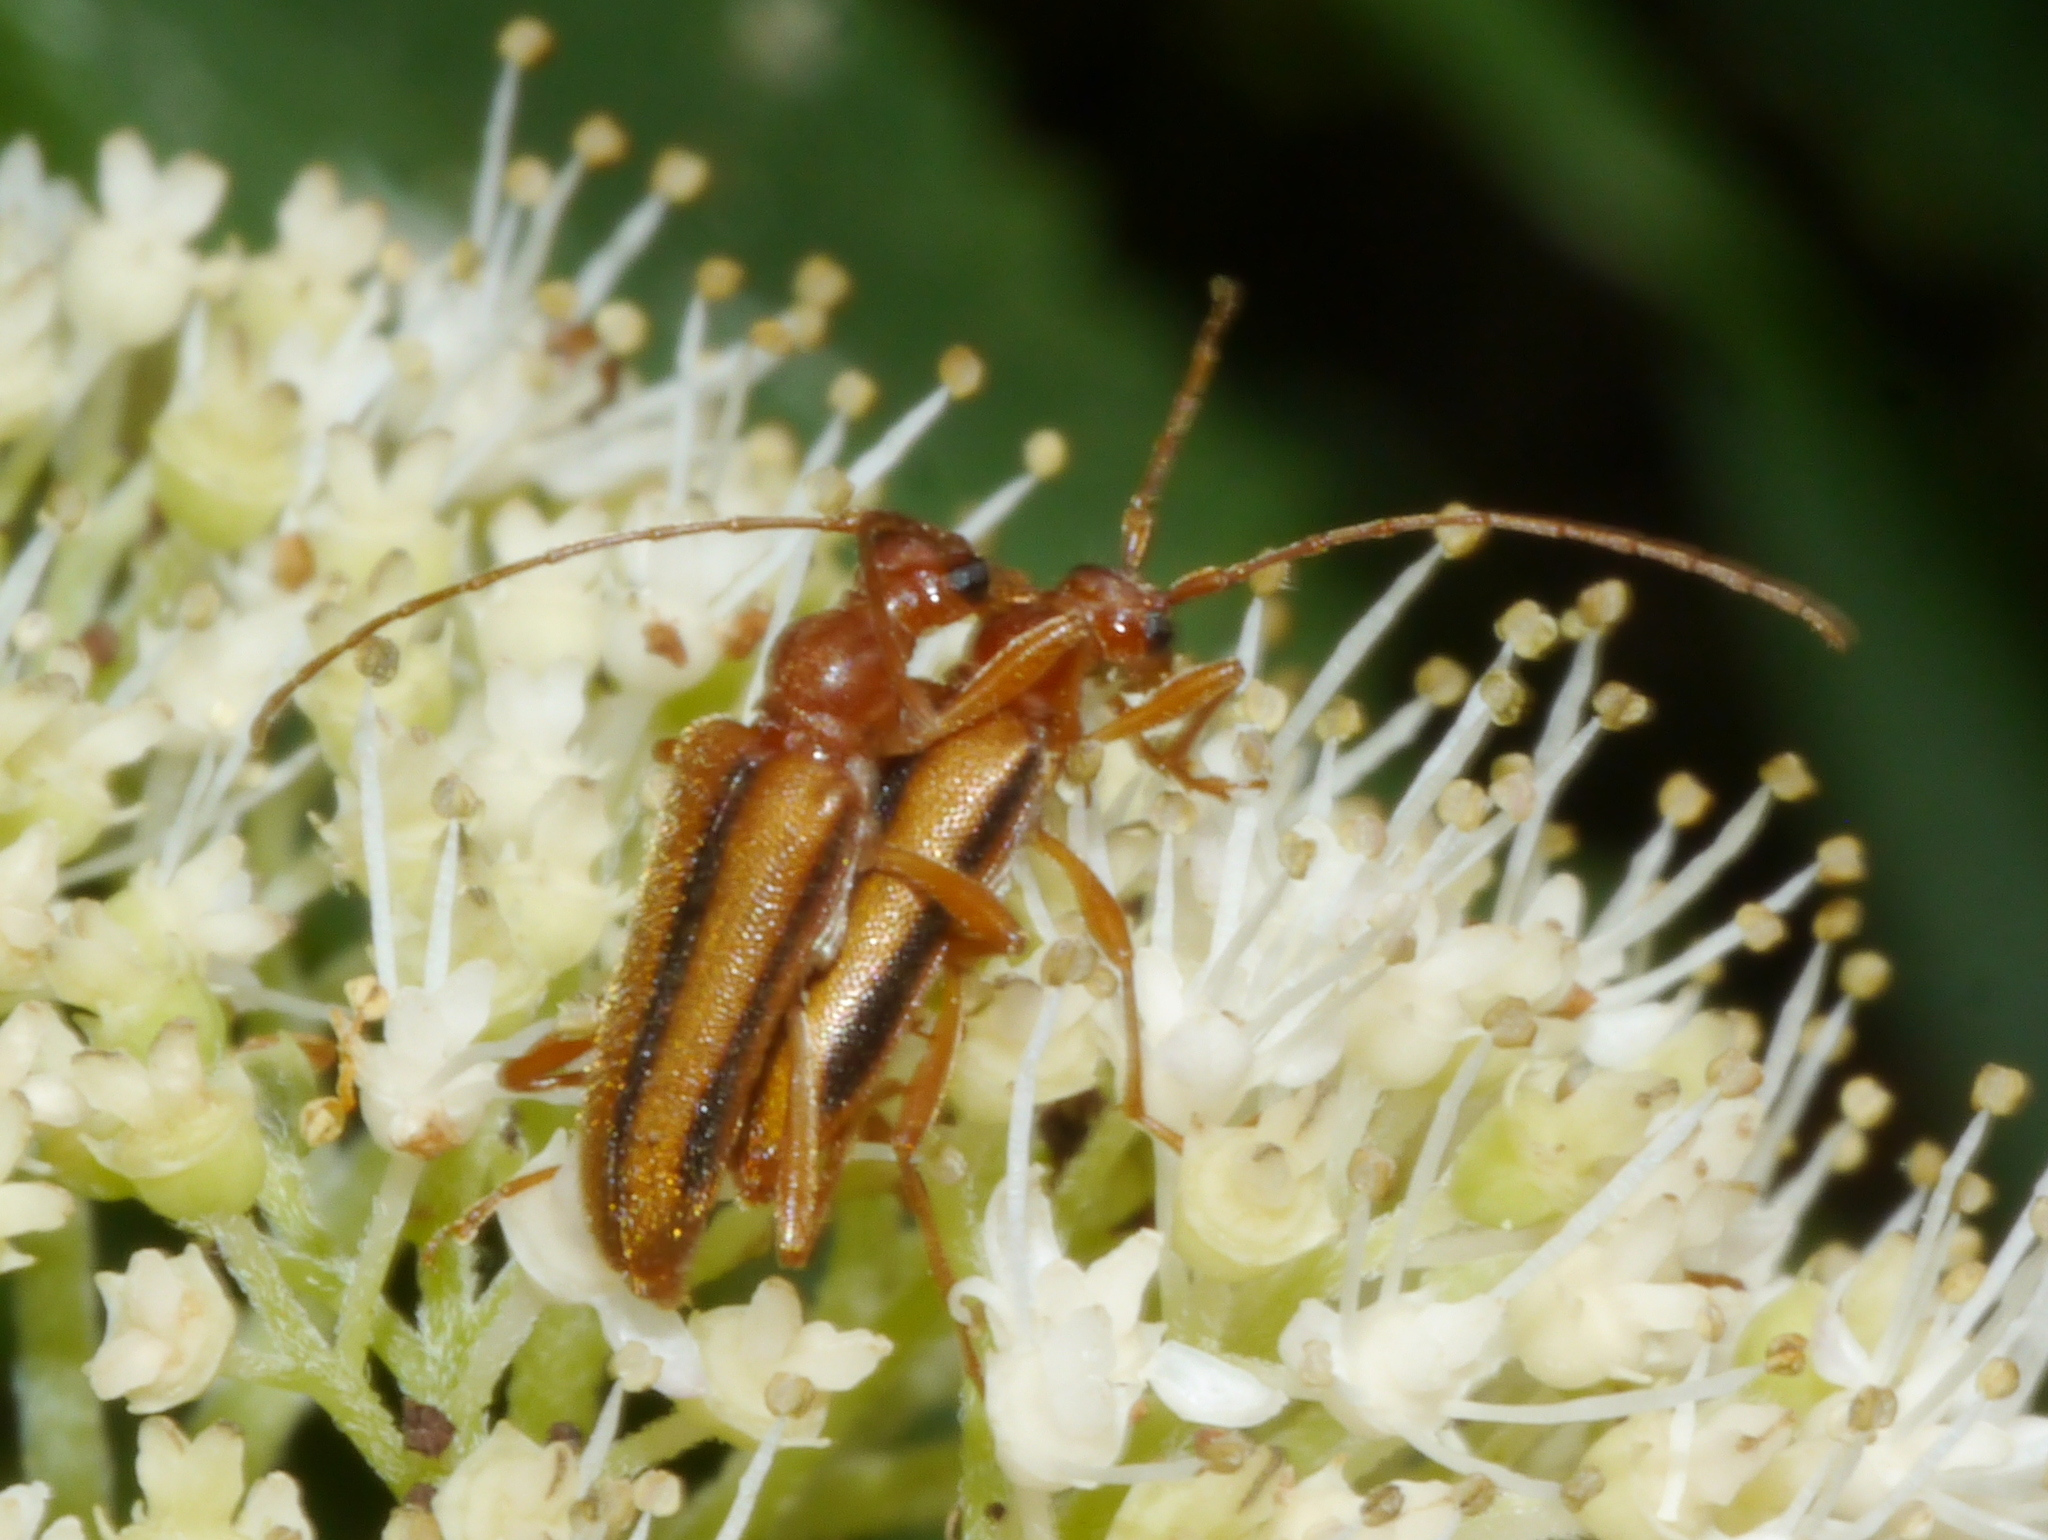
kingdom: Animalia
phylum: Arthropoda
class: Insecta
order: Coleoptera
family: Cerambycidae
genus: Pidonia
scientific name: Pidonia aurata
